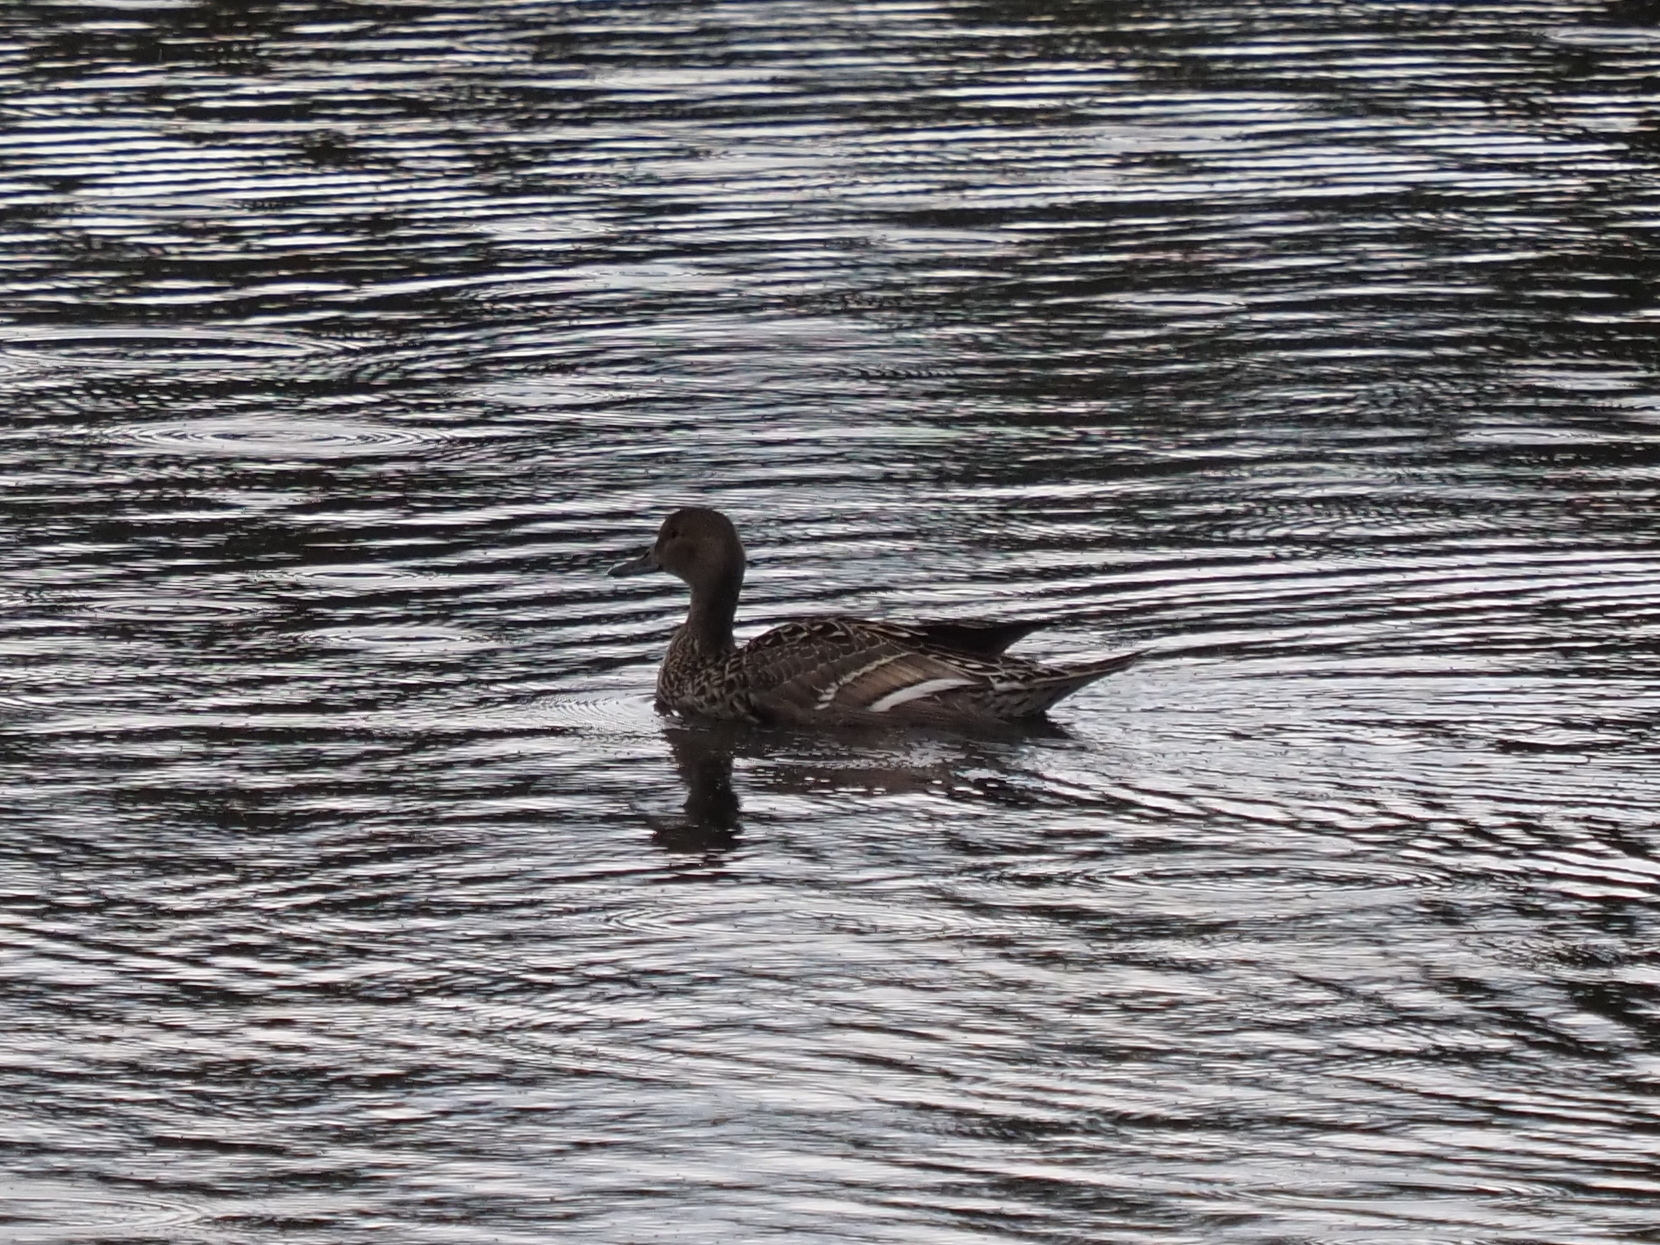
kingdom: Animalia
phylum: Chordata
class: Aves
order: Anseriformes
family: Anatidae
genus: Anas
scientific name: Anas acuta
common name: Northern pintail
